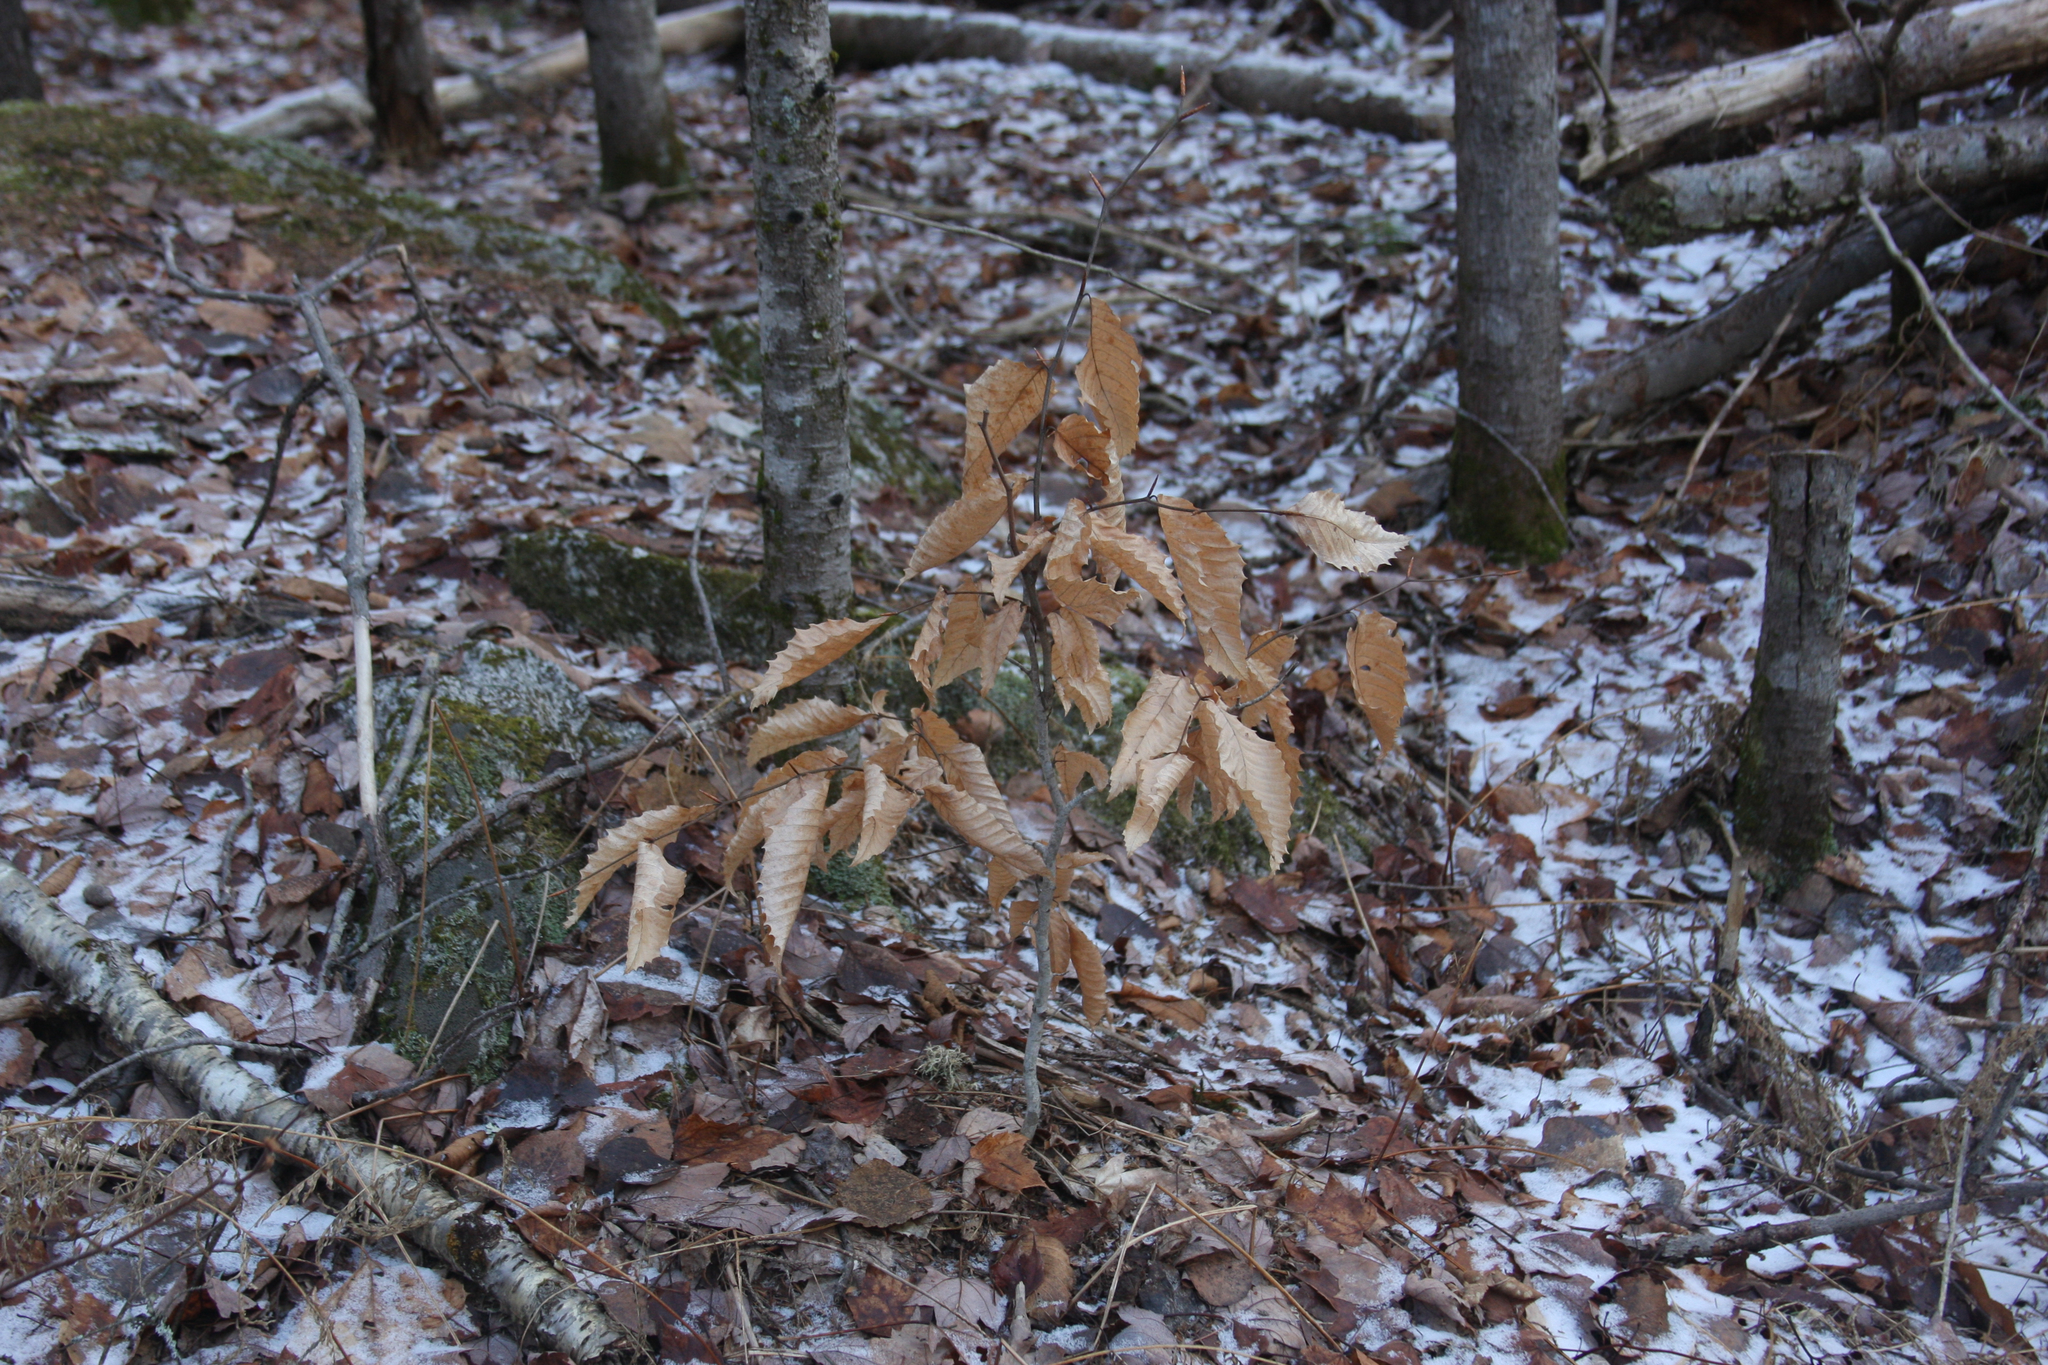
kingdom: Plantae
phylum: Tracheophyta
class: Magnoliopsida
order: Fagales
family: Fagaceae
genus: Fagus
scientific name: Fagus grandifolia
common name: American beech
